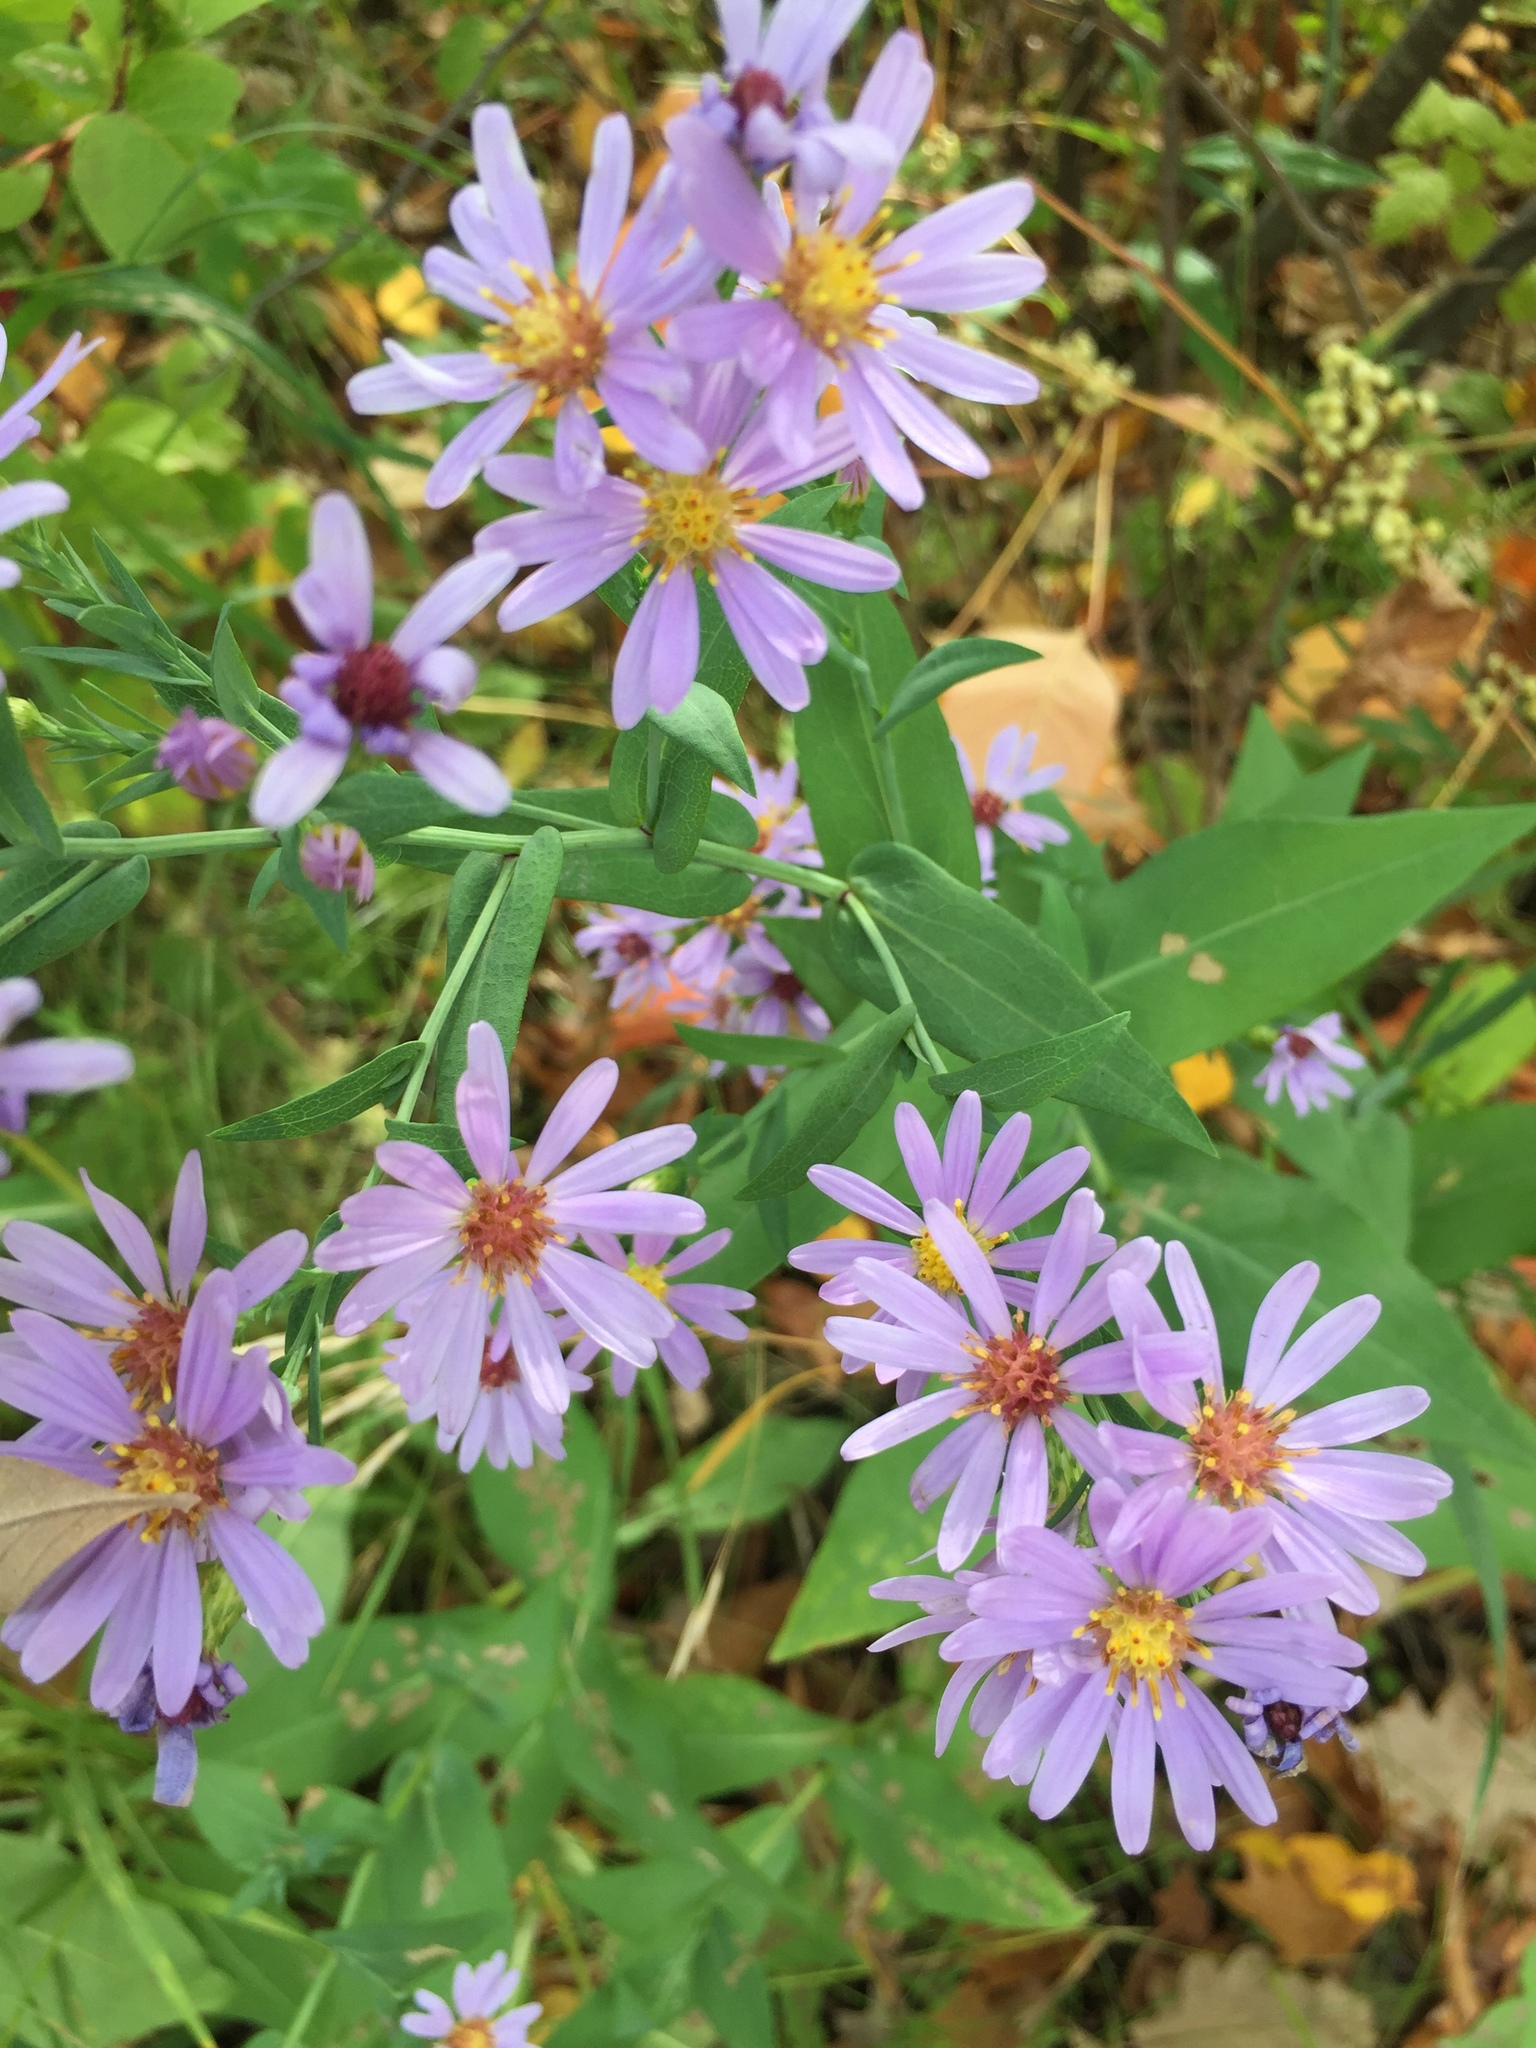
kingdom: Plantae
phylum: Tracheophyta
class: Magnoliopsida
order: Asterales
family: Asteraceae
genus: Symphyotrichum
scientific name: Symphyotrichum laeve
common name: Glaucous aster
